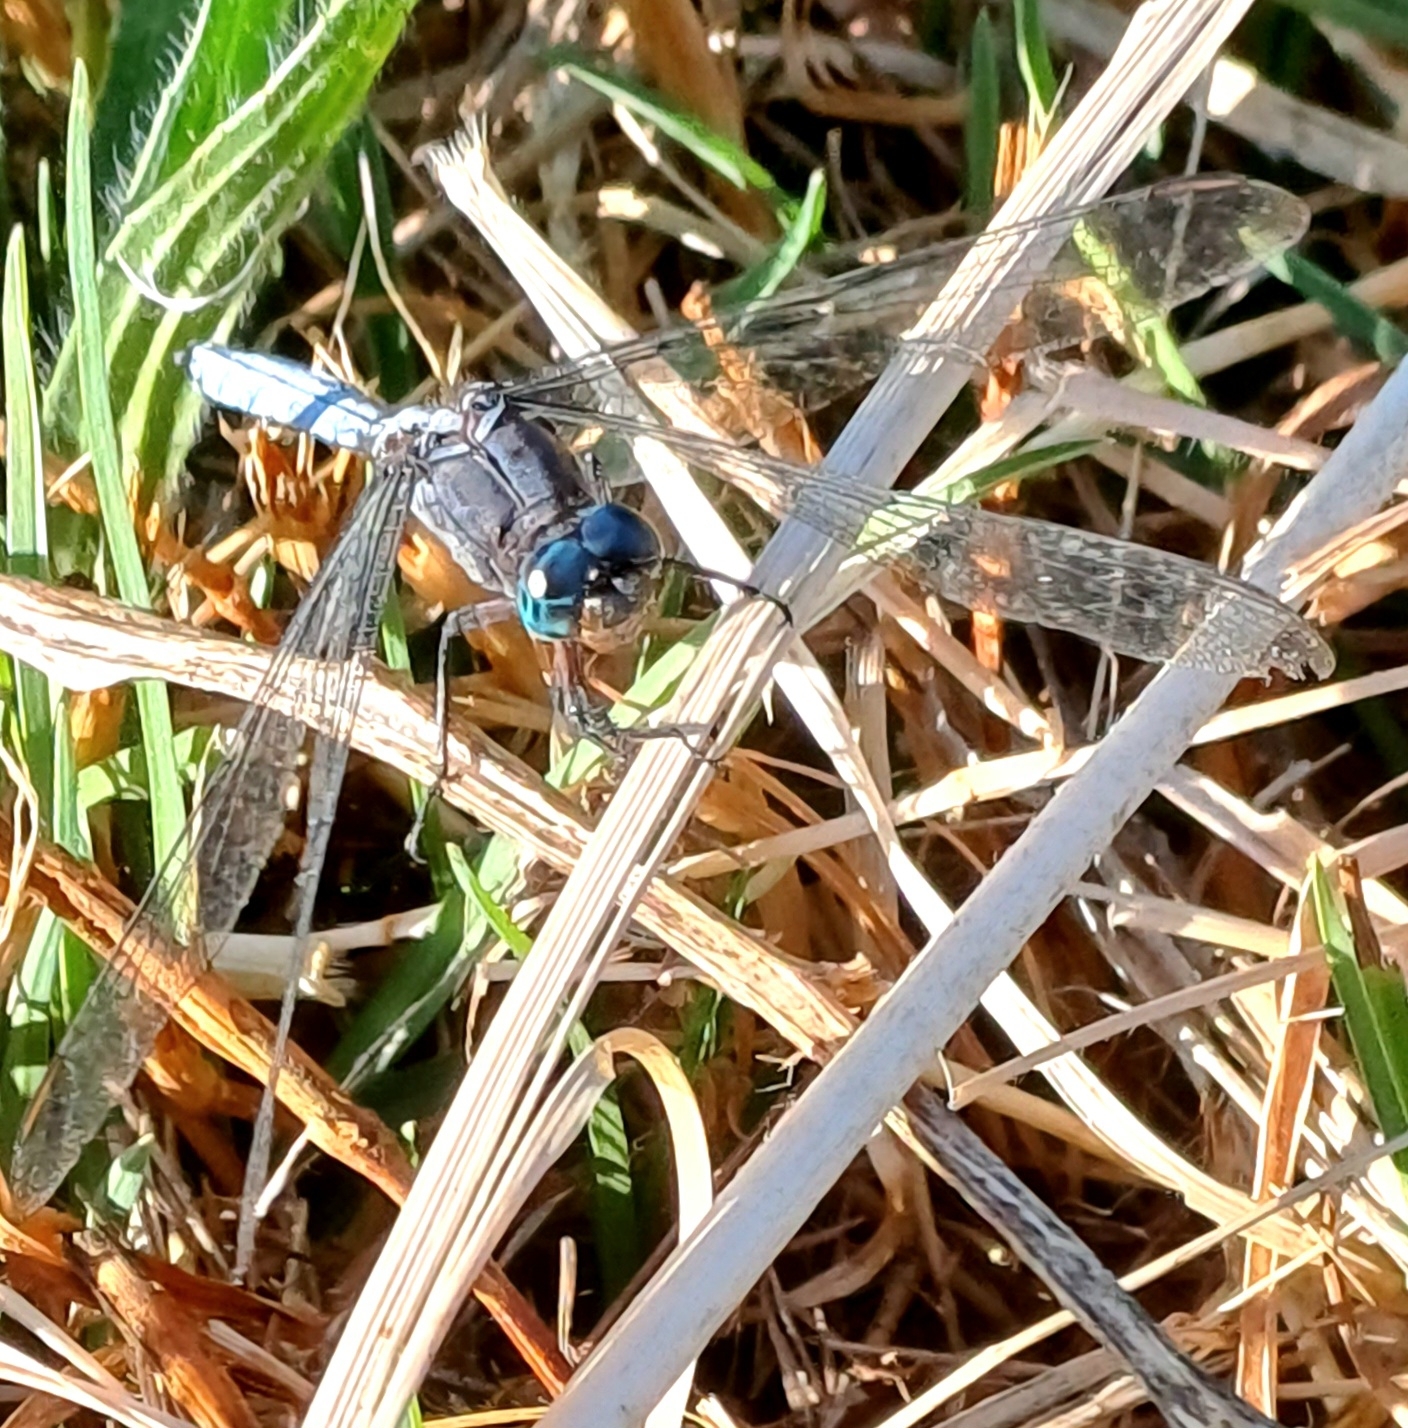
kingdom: Animalia
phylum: Arthropoda
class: Insecta
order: Odonata
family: Libellulidae
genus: Orthetrum
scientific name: Orthetrum julia
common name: Julia skimmer
